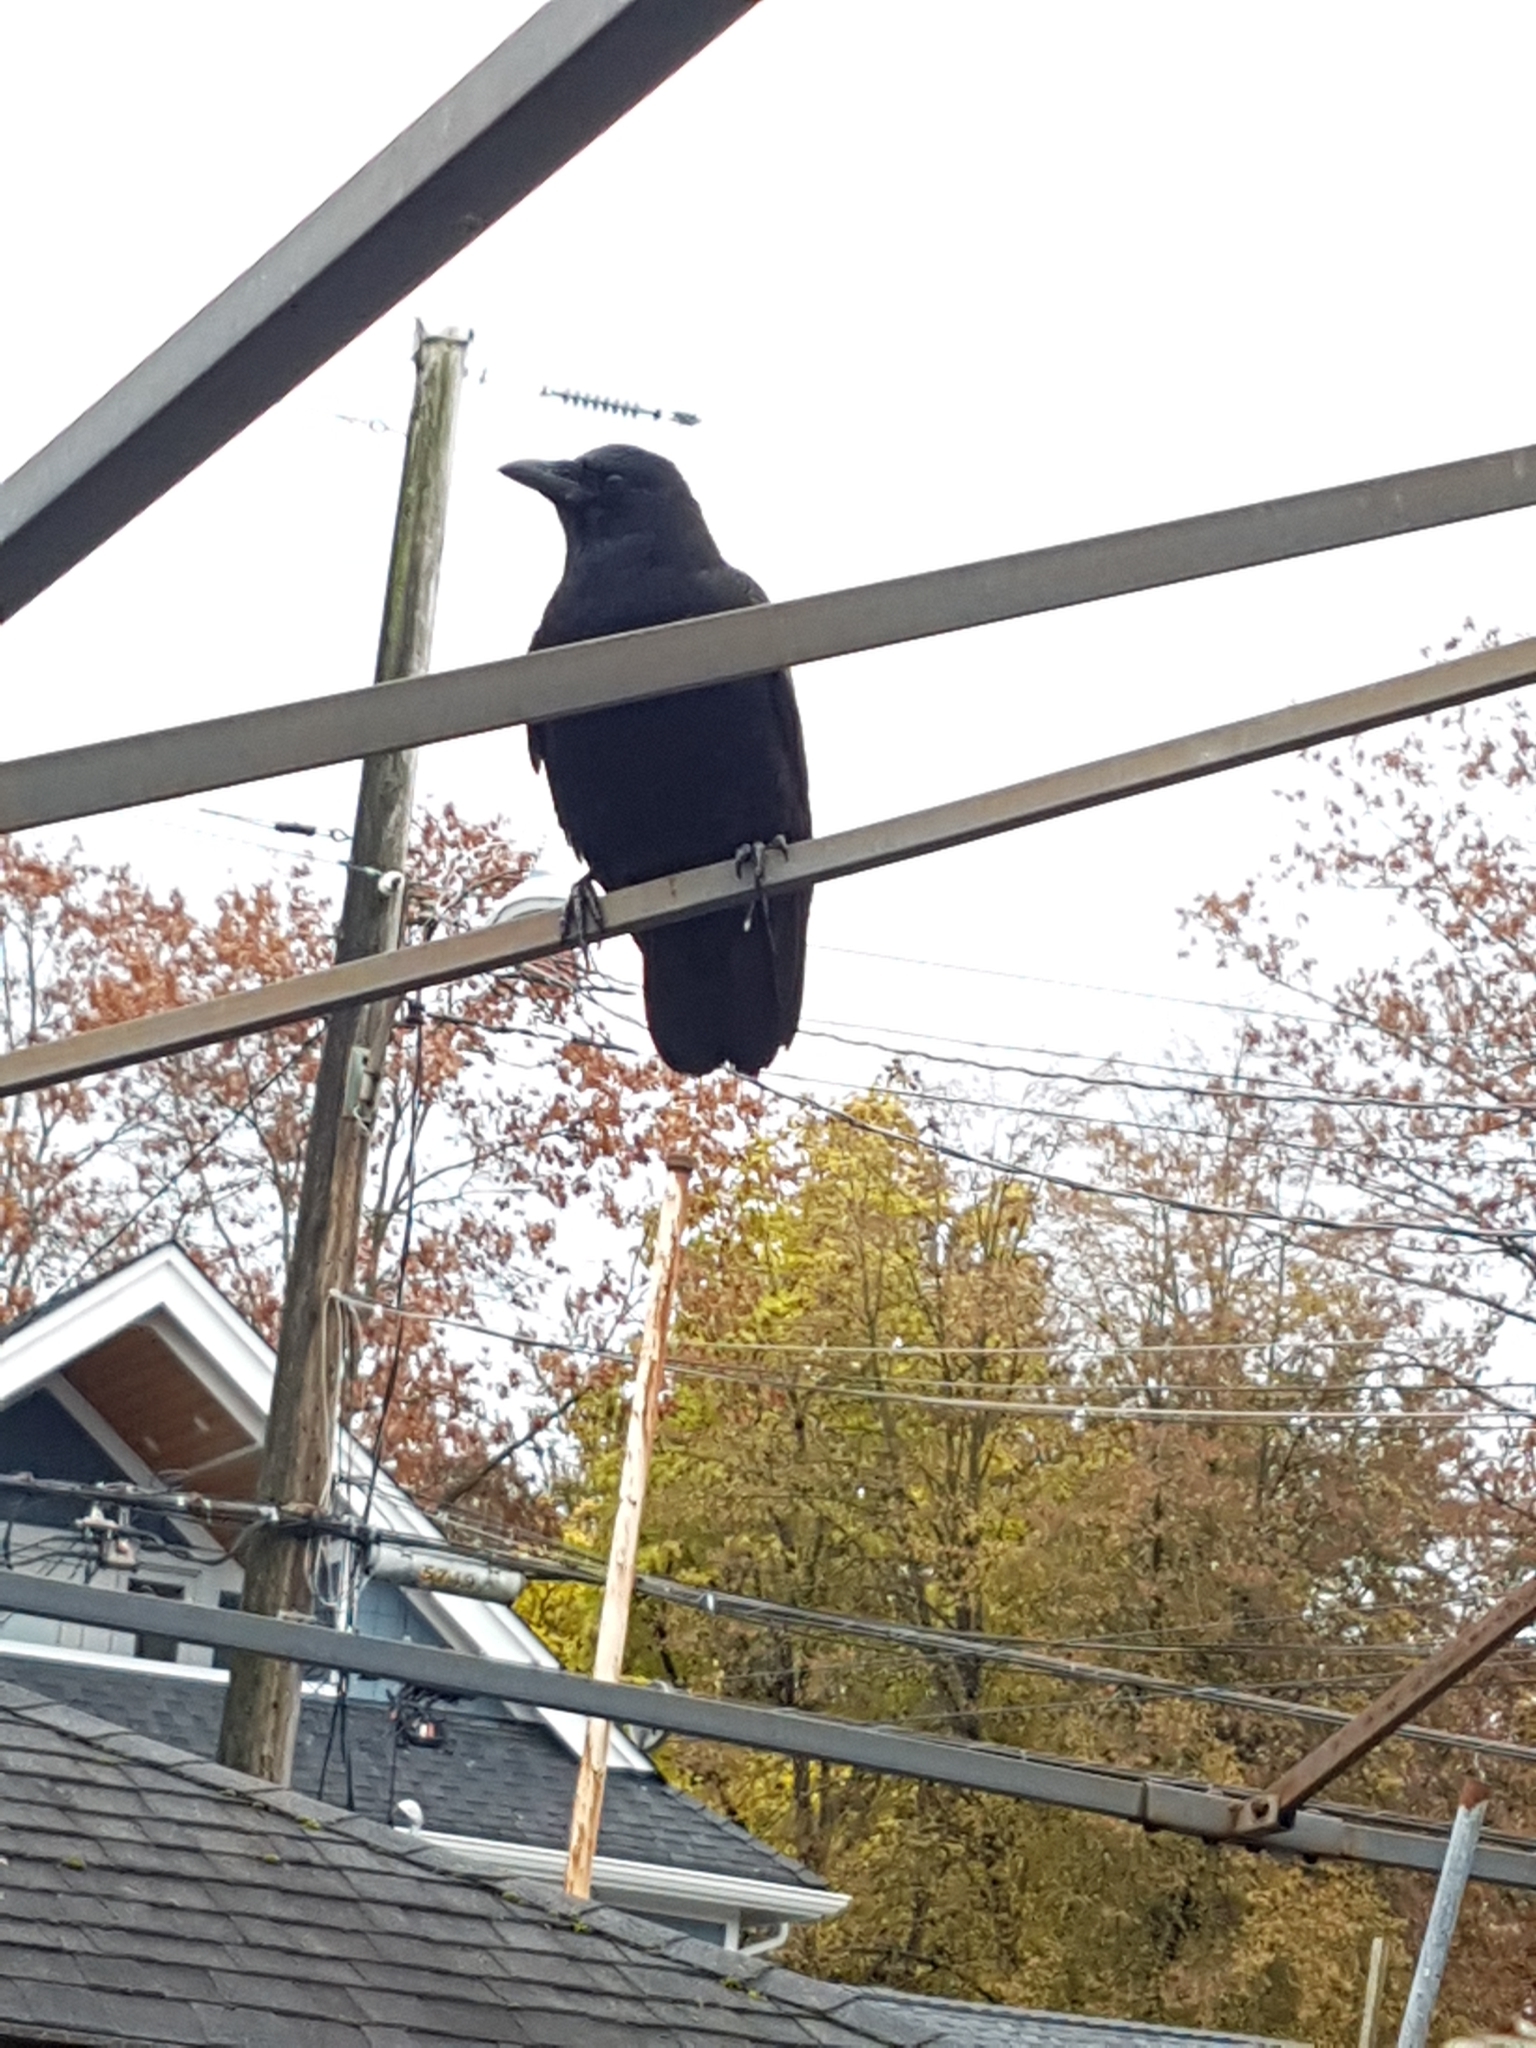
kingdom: Animalia
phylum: Chordata
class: Aves
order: Passeriformes
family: Corvidae
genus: Corvus
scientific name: Corvus brachyrhynchos
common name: American crow
